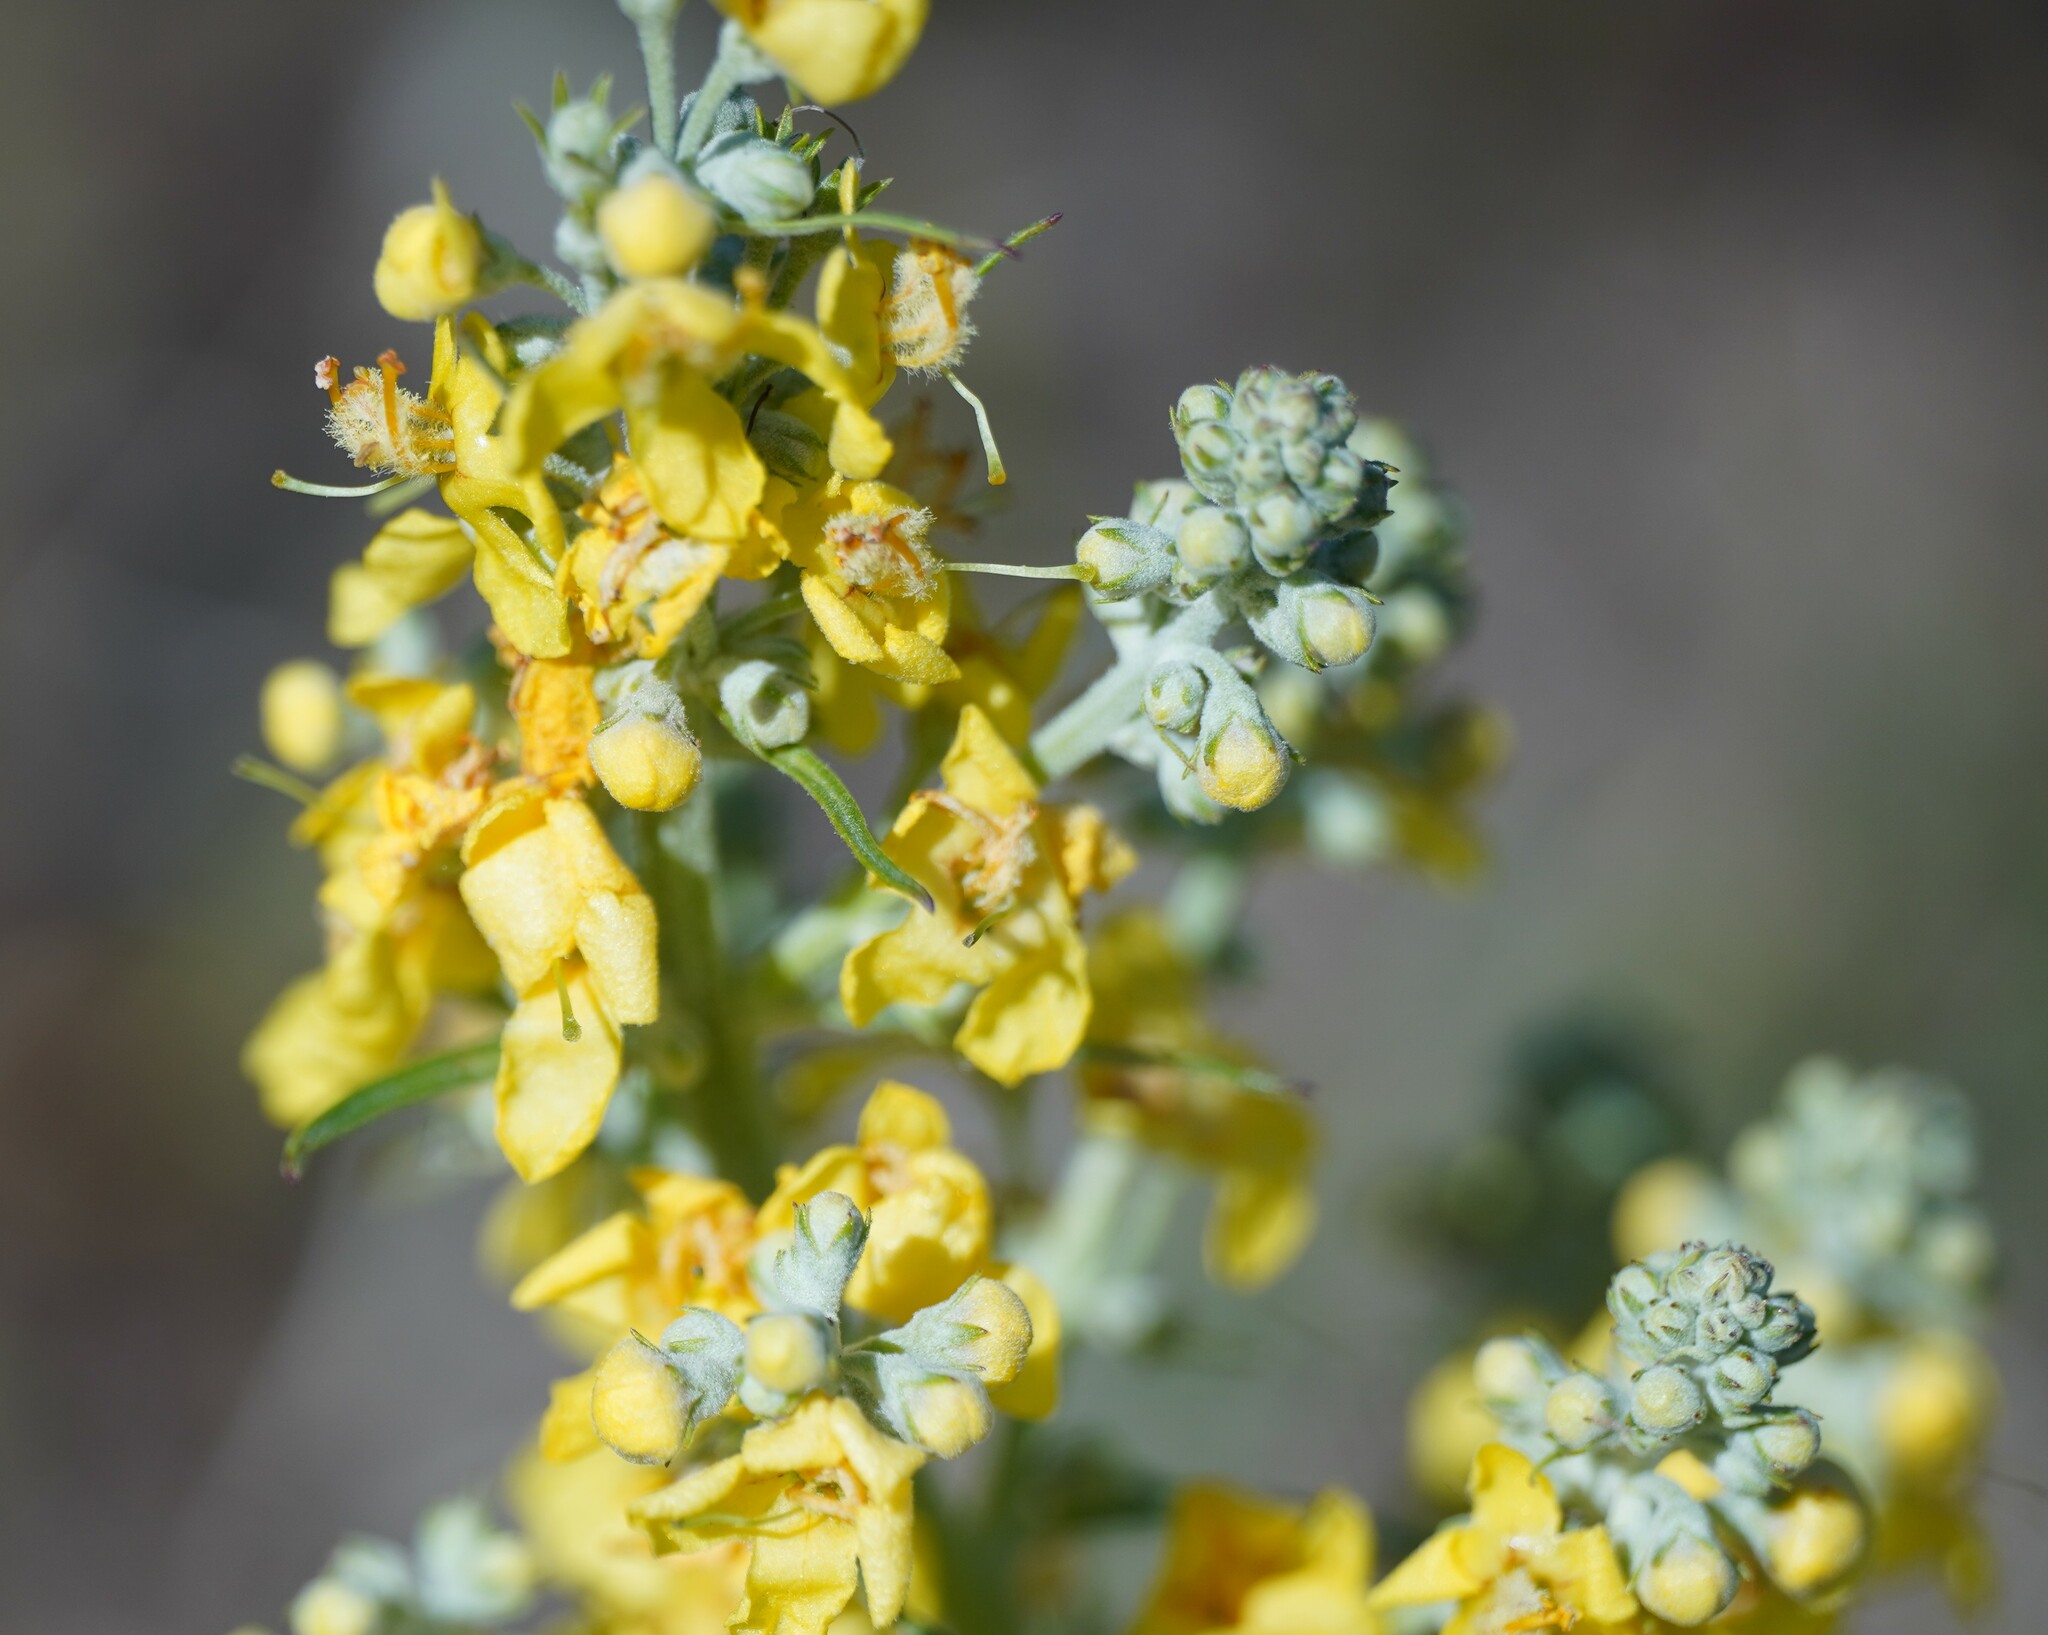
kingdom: Plantae
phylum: Tracheophyta
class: Magnoliopsida
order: Lamiales
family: Scrophulariaceae
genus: Verbascum
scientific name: Verbascum lychnitis
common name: White mullein
